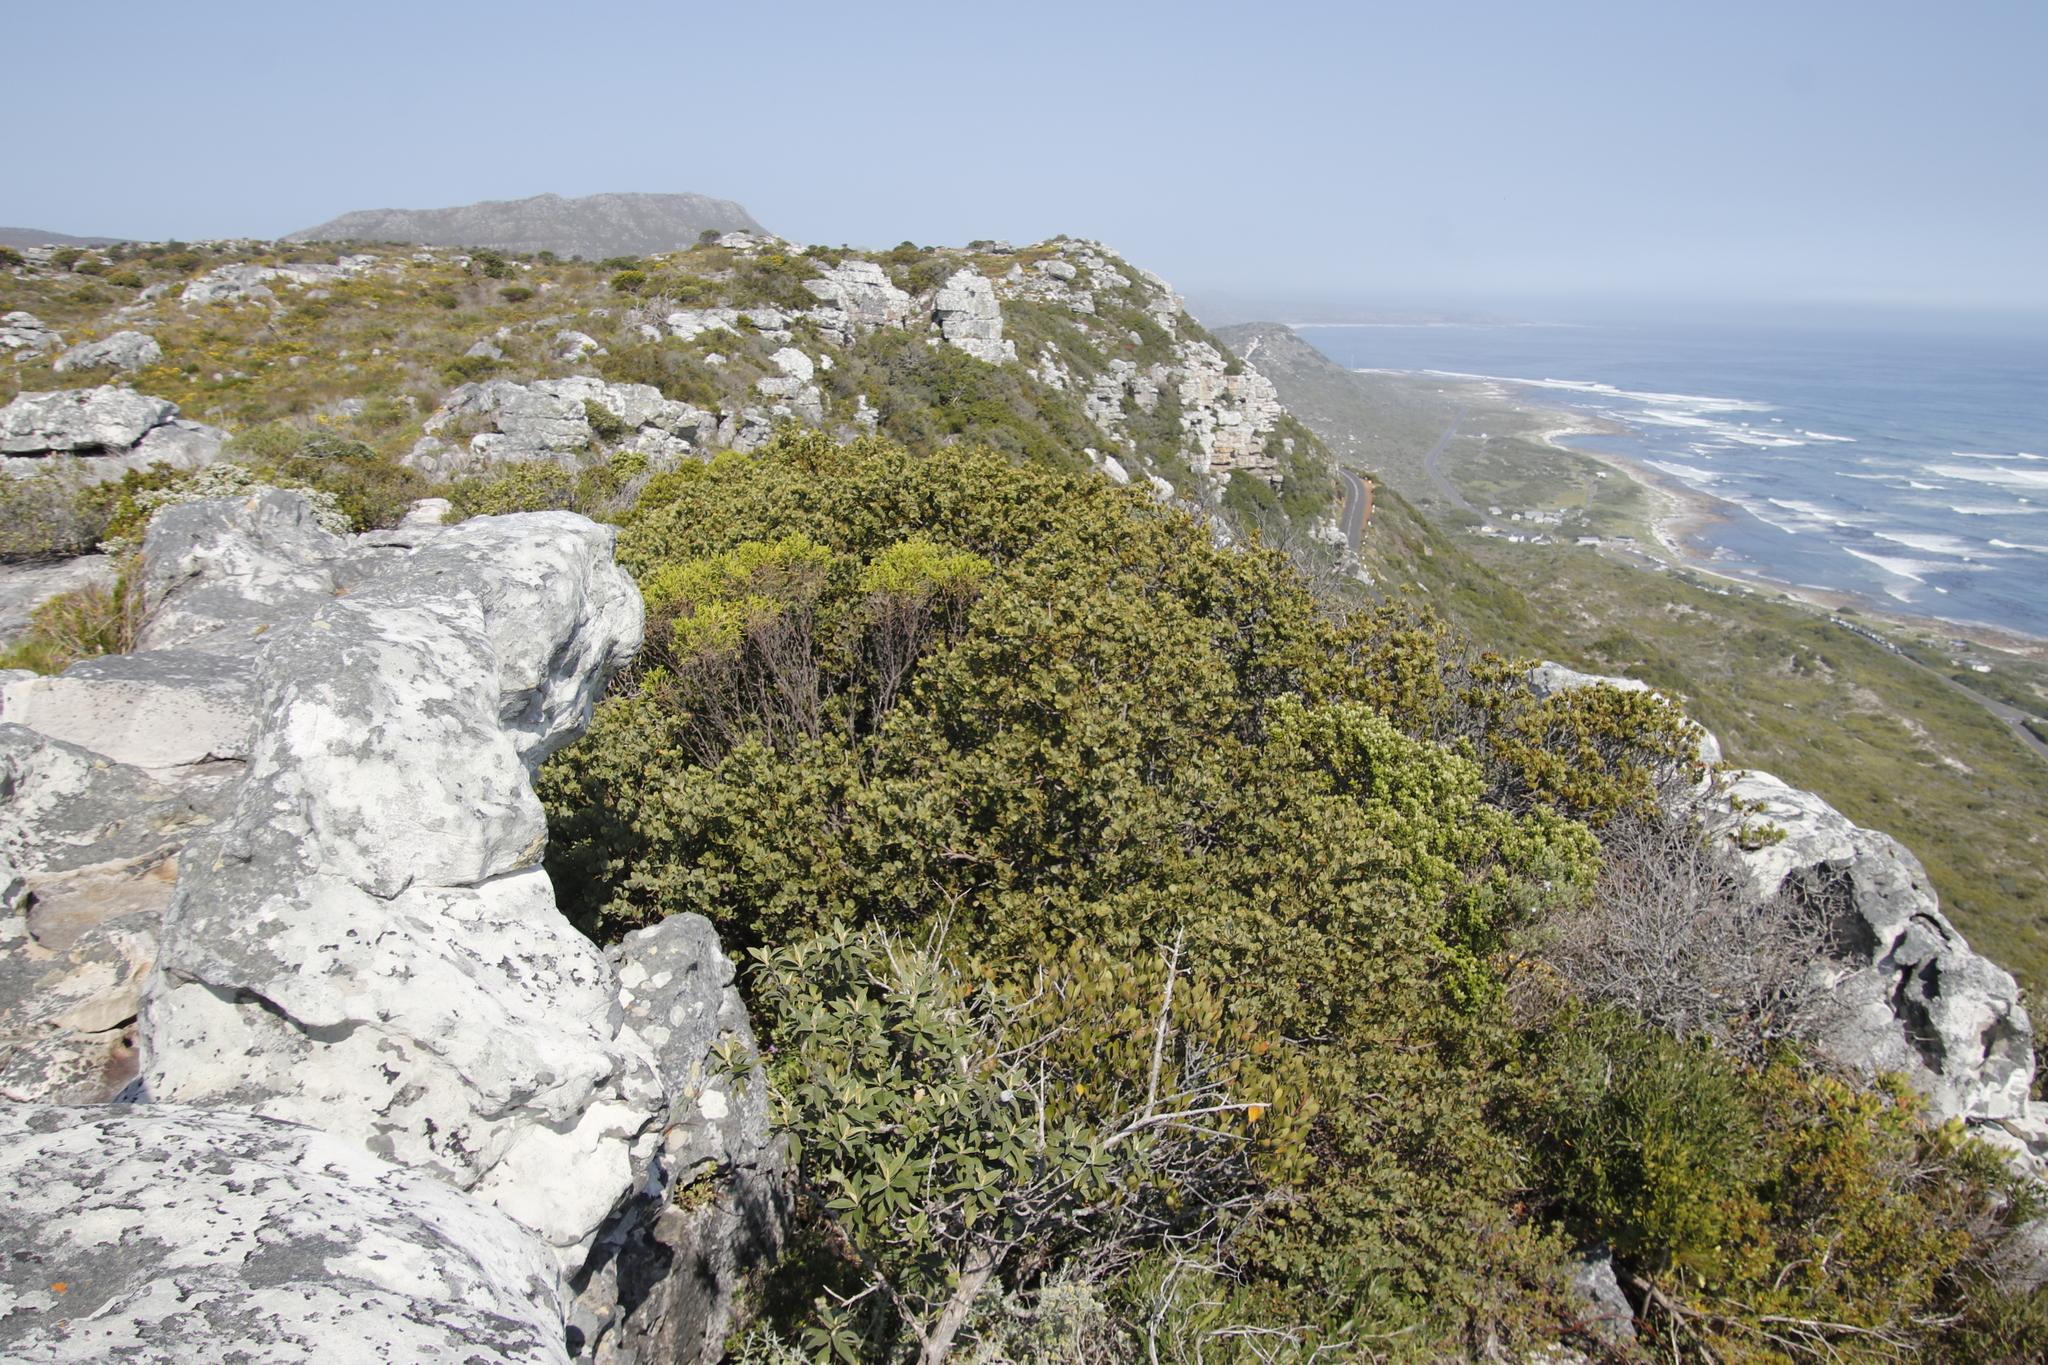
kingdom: Plantae
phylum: Tracheophyta
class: Magnoliopsida
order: Santalales
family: Santalaceae
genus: Osyris
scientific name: Osyris compressa
